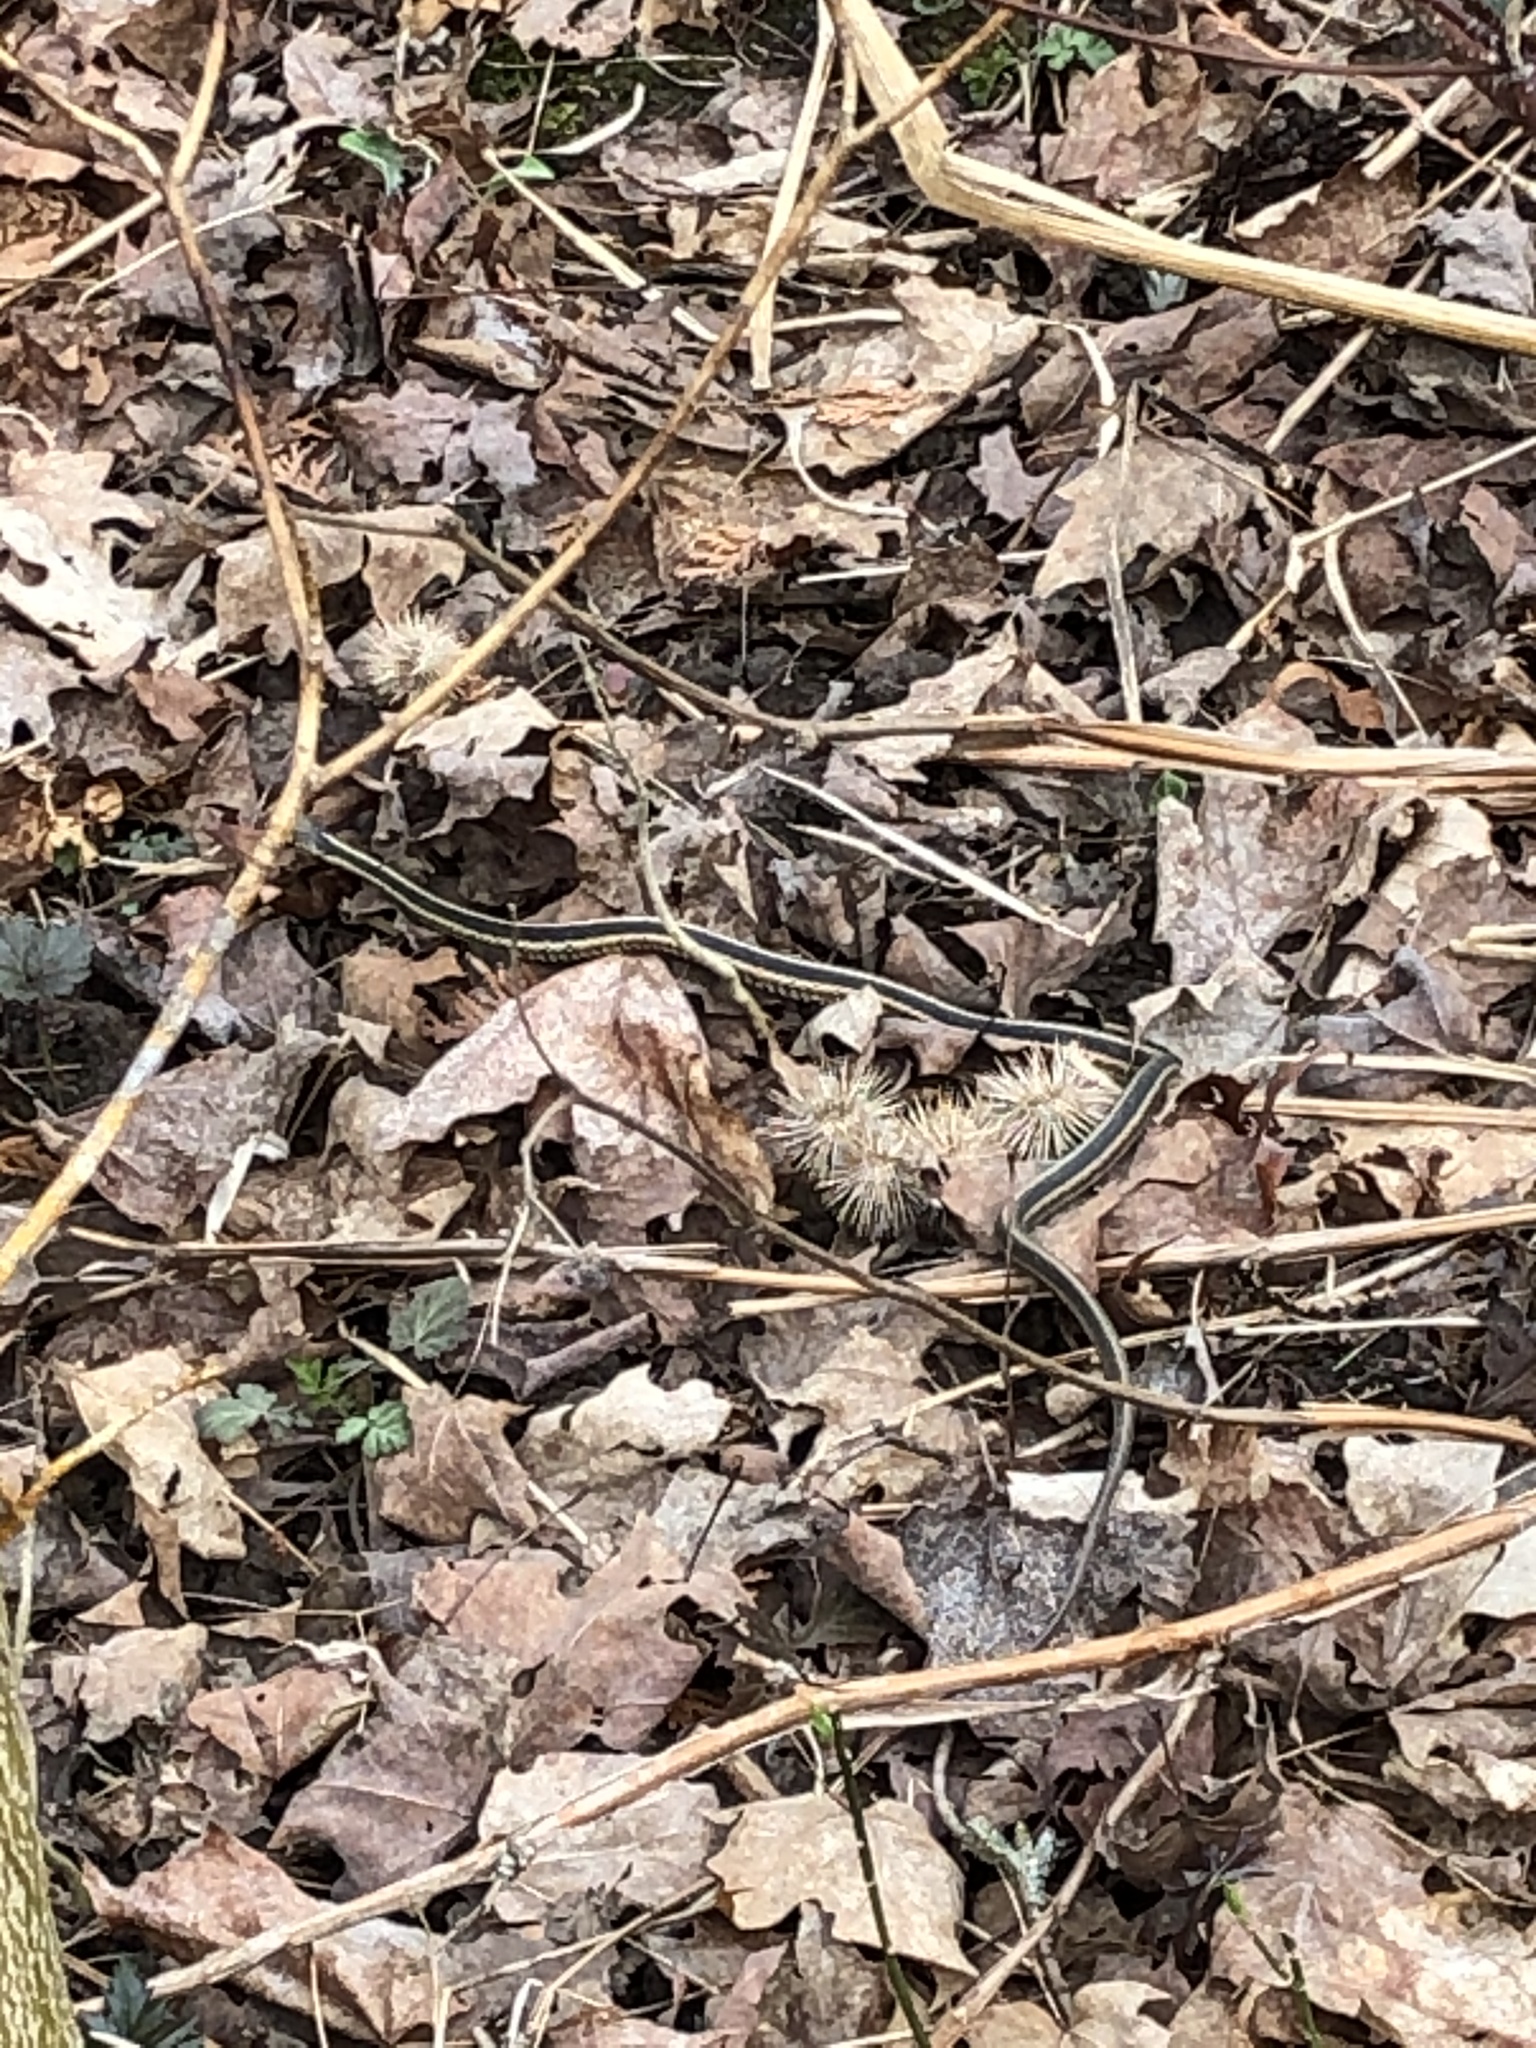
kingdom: Animalia
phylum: Chordata
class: Squamata
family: Colubridae
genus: Thamnophis
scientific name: Thamnophis sirtalis
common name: Common garter snake
